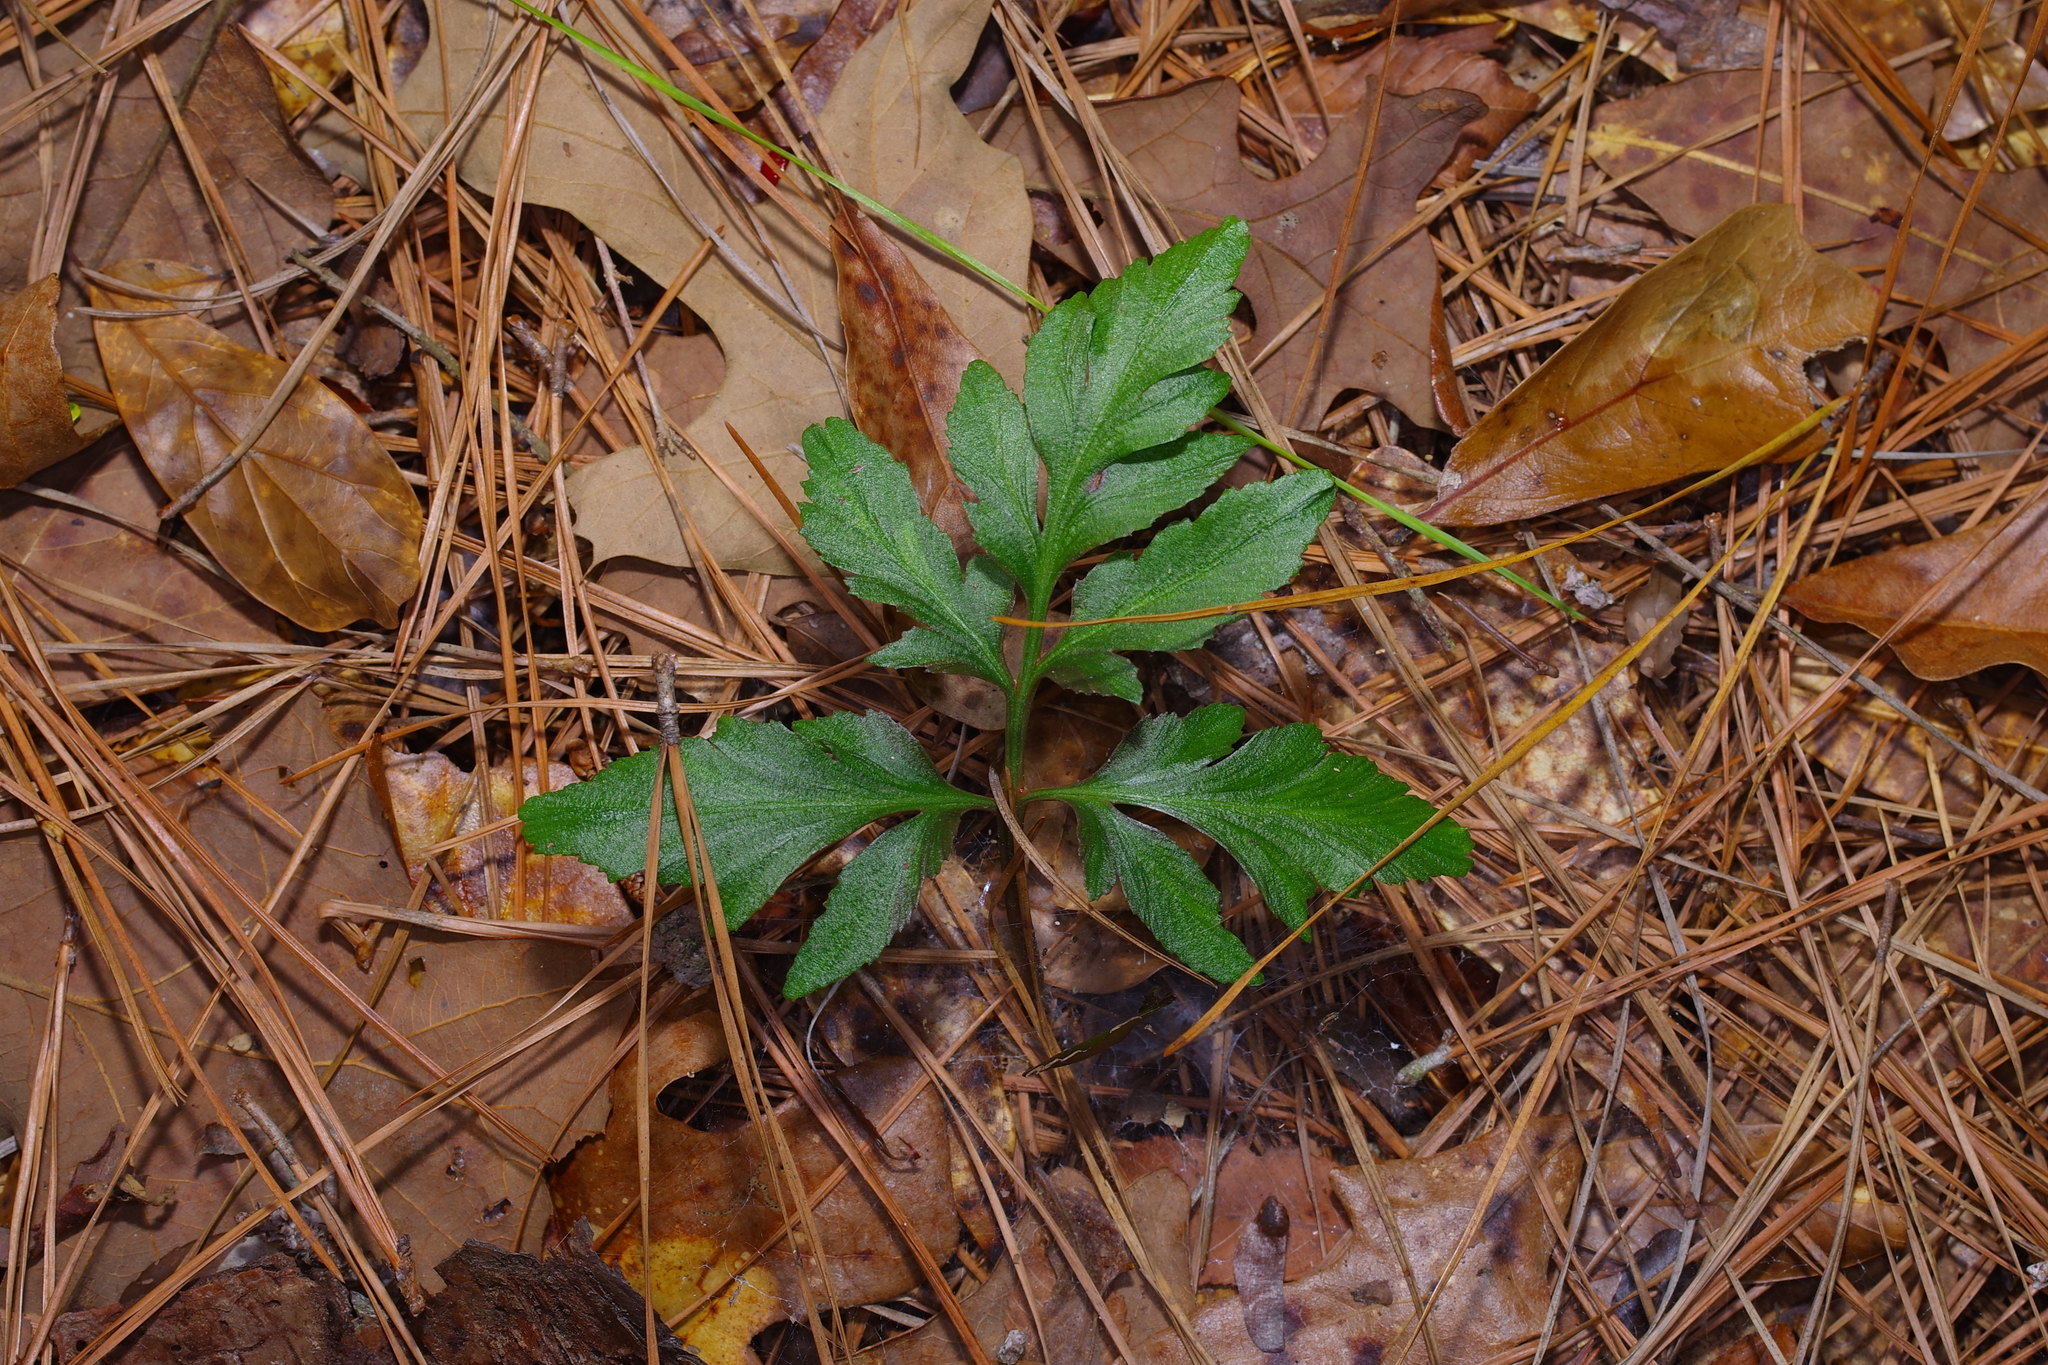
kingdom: Plantae
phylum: Tracheophyta
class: Polypodiopsida
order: Ophioglossales
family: Ophioglossaceae
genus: Sceptridium
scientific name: Sceptridium biternatum
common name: Sparse-lobed grapefern
